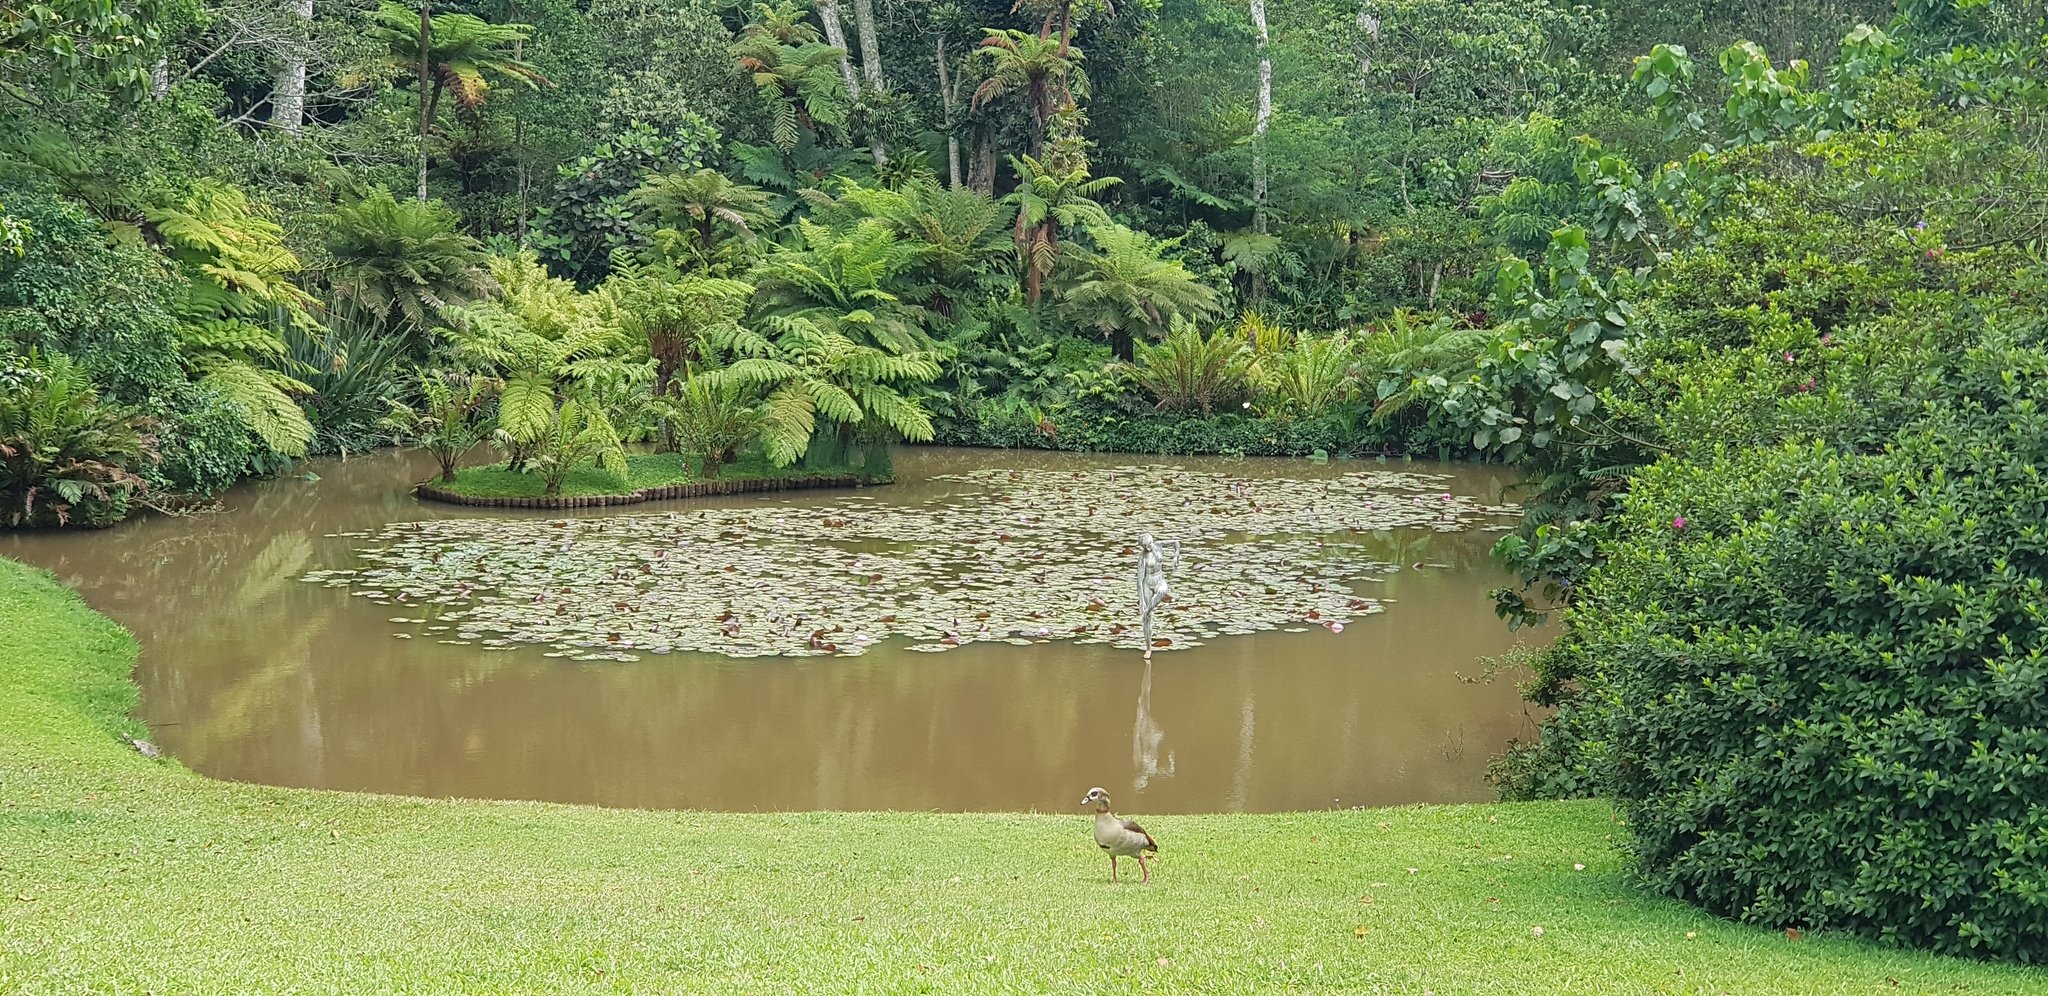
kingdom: Animalia
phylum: Chordata
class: Aves
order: Anseriformes
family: Anatidae
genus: Alopochen
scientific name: Alopochen aegyptiaca
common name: Egyptian goose
